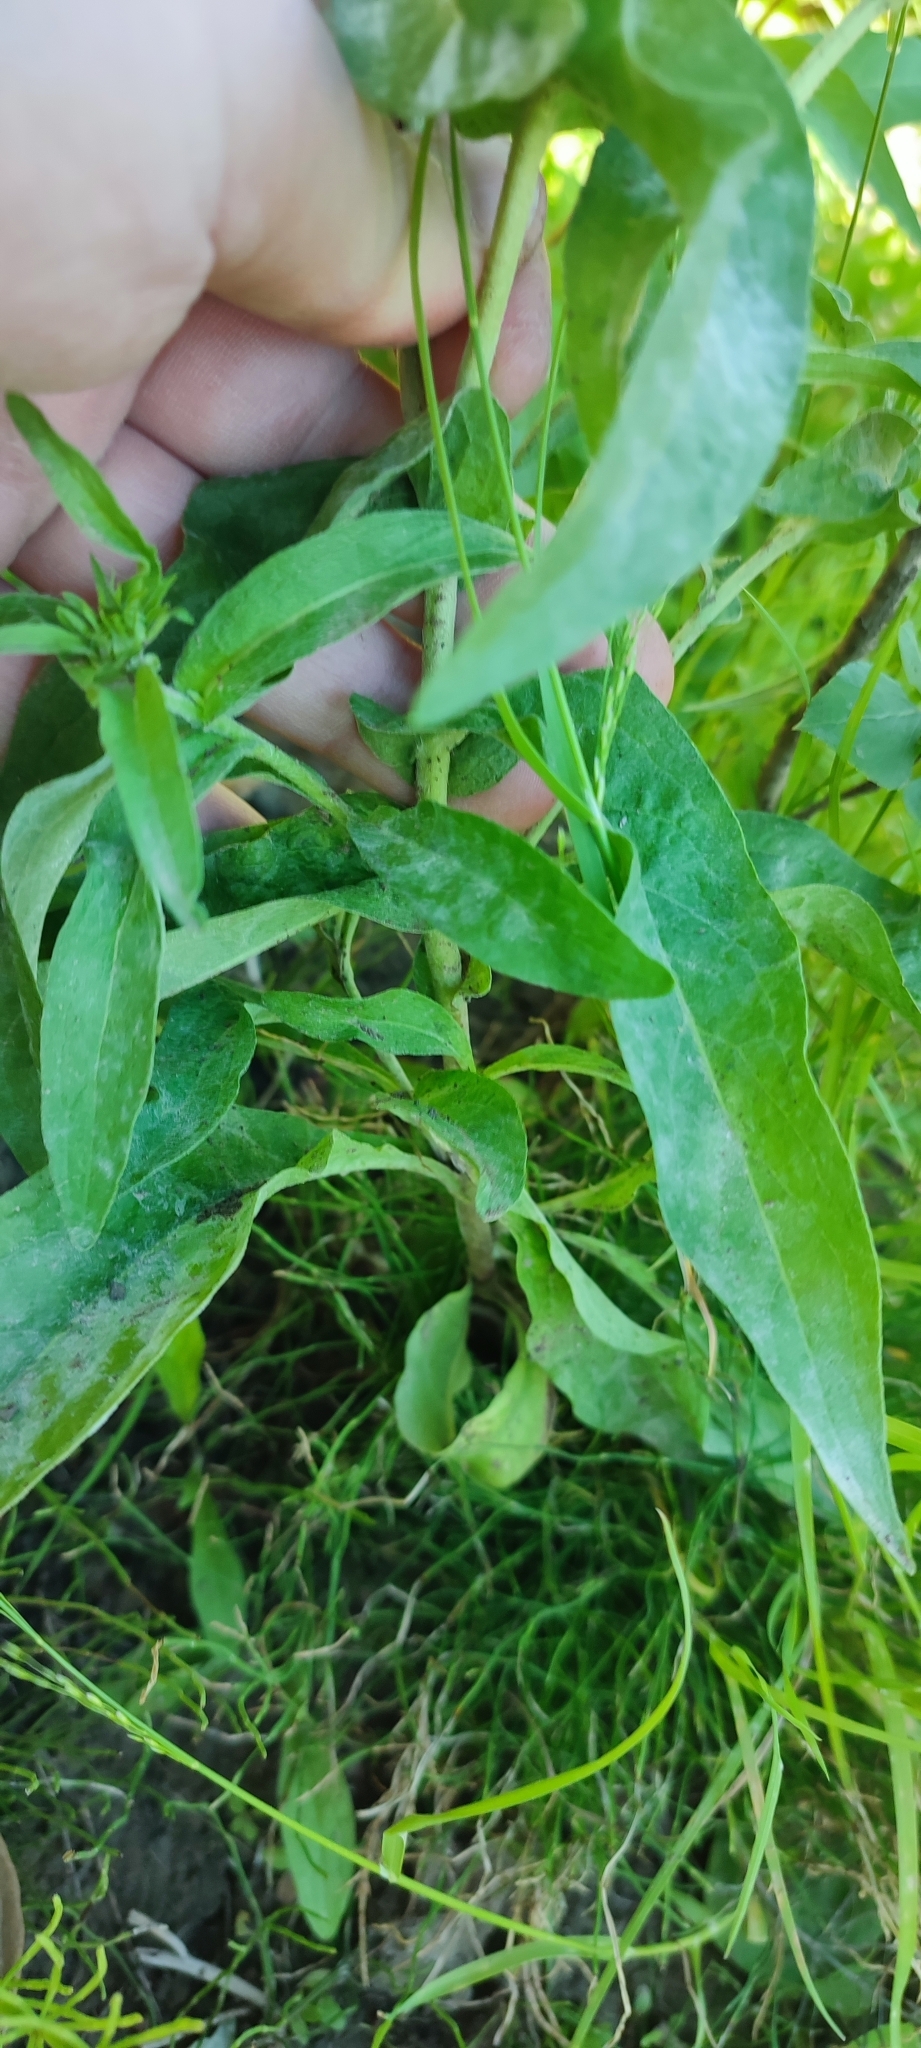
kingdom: Plantae
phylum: Tracheophyta
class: Magnoliopsida
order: Asterales
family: Asteraceae
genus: Pentanema
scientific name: Pentanema britannicum
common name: British elecampane
